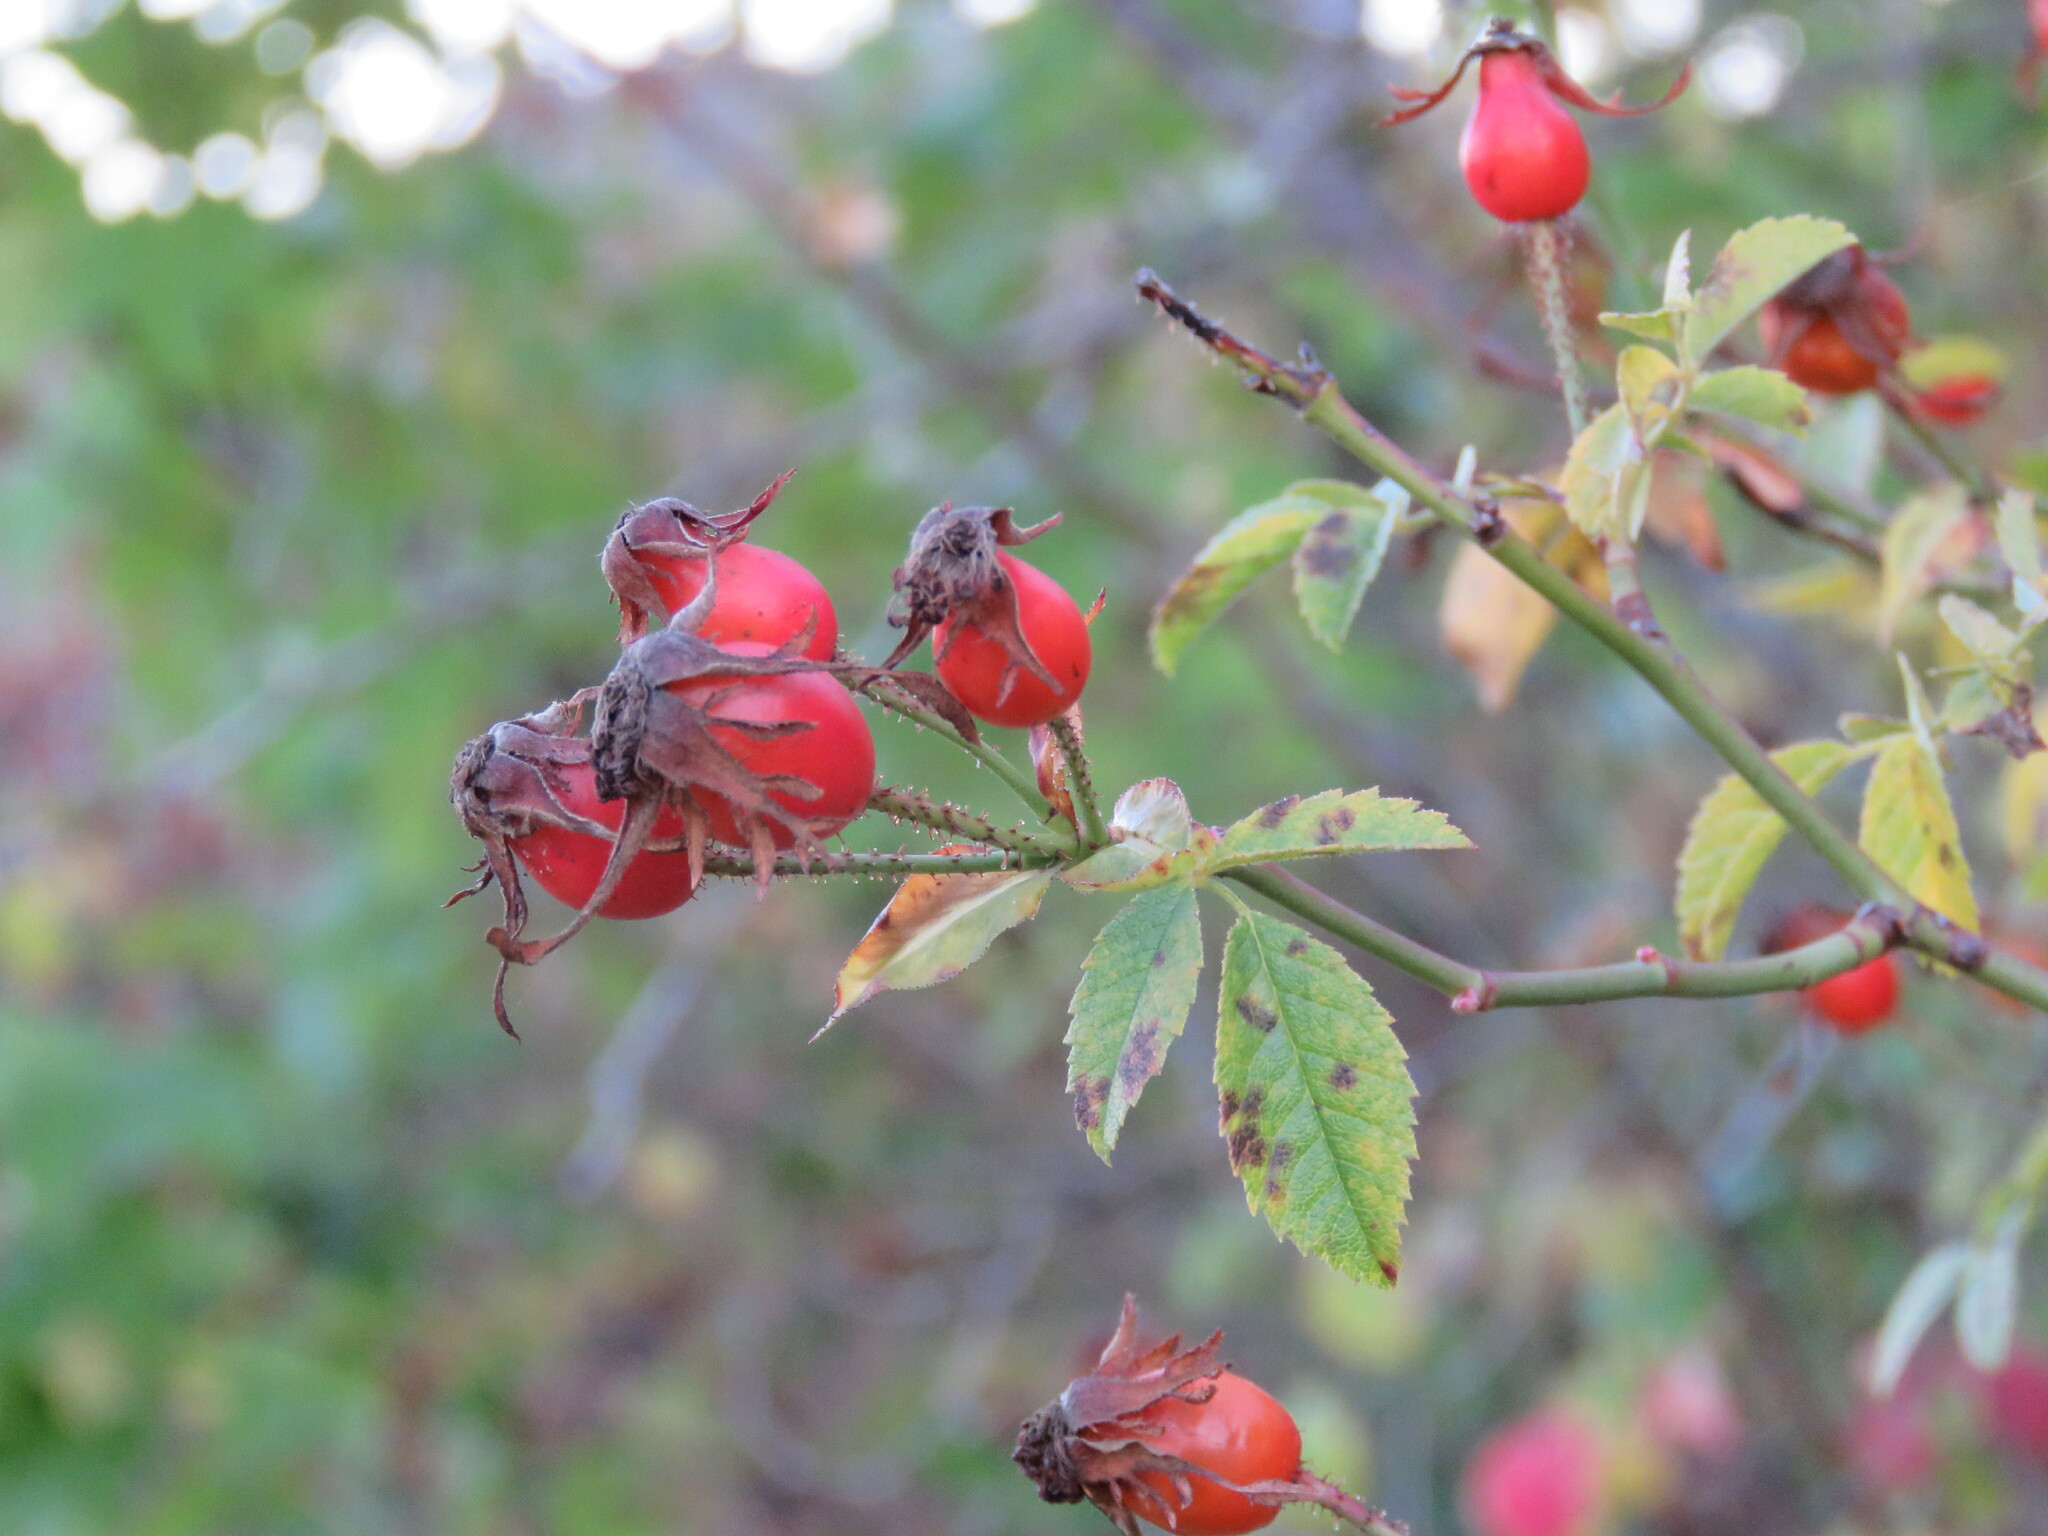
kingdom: Plantae
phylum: Tracheophyta
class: Magnoliopsida
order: Rosales
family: Rosaceae
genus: Rosa
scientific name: Rosa canina
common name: Dog rose
